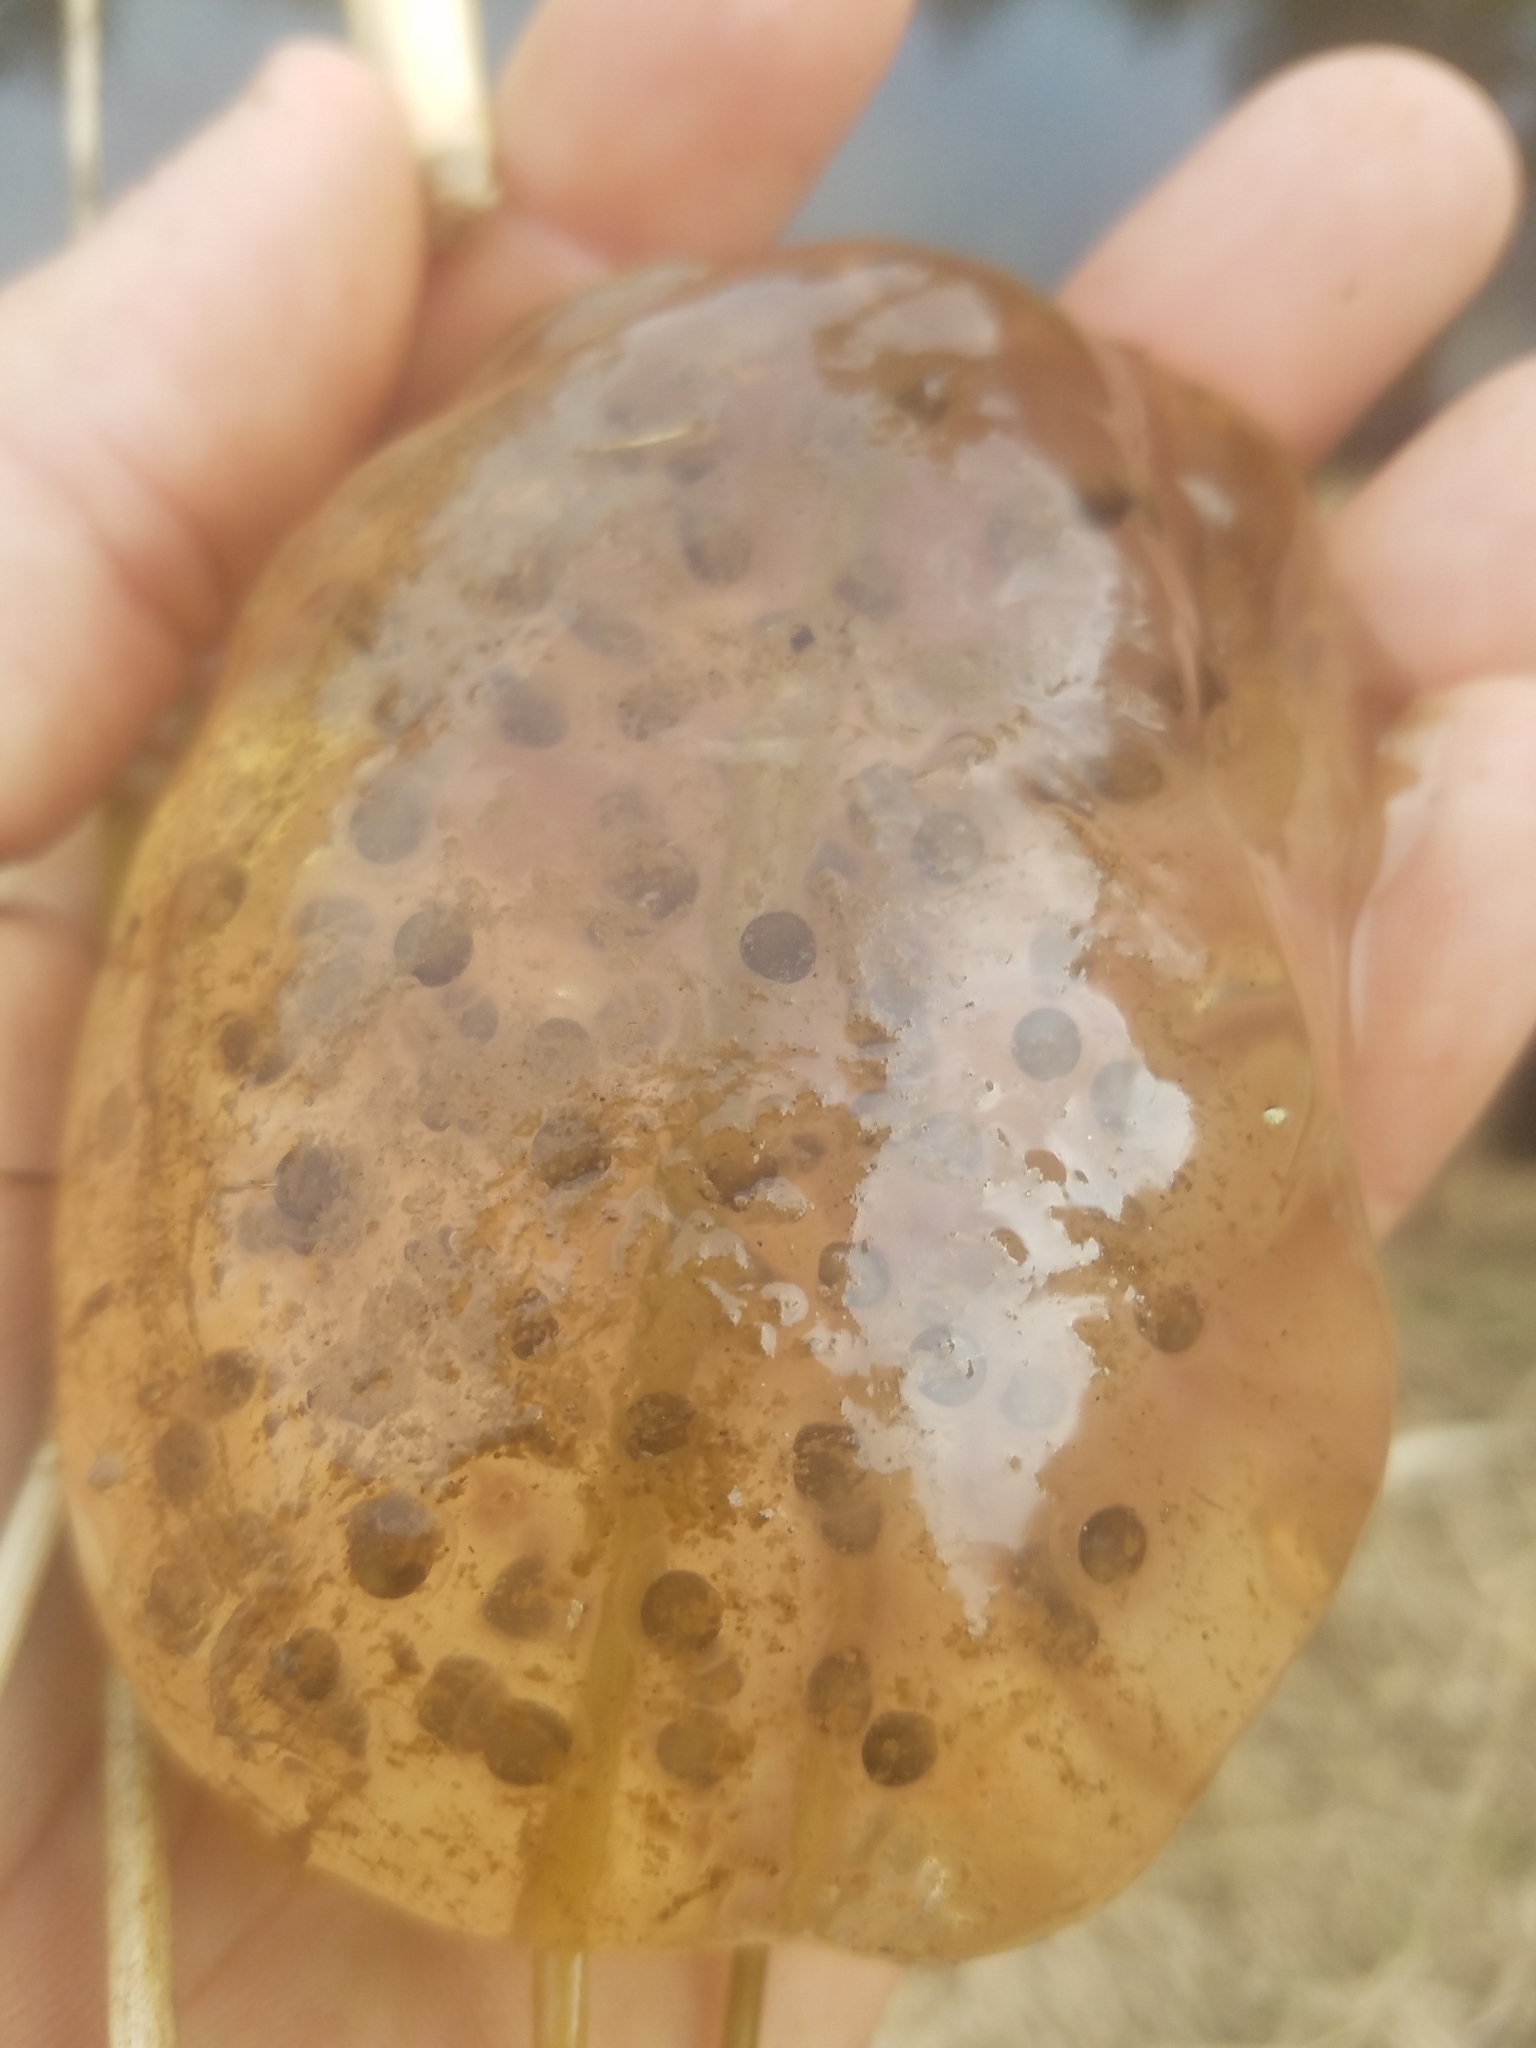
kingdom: Animalia
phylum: Chordata
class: Amphibia
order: Caudata
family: Ambystomatidae
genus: Ambystoma
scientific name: Ambystoma gracile
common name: Northwestern salamander
